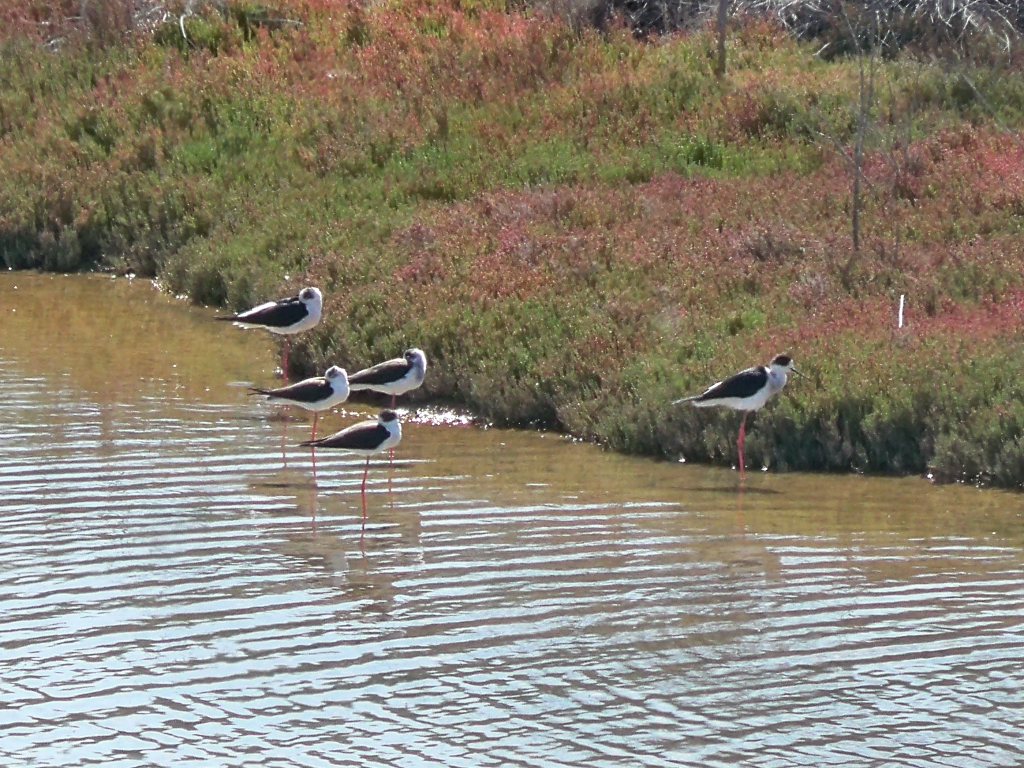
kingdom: Animalia
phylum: Chordata
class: Aves
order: Charadriiformes
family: Recurvirostridae
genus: Himantopus
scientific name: Himantopus himantopus
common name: Black-winged stilt
